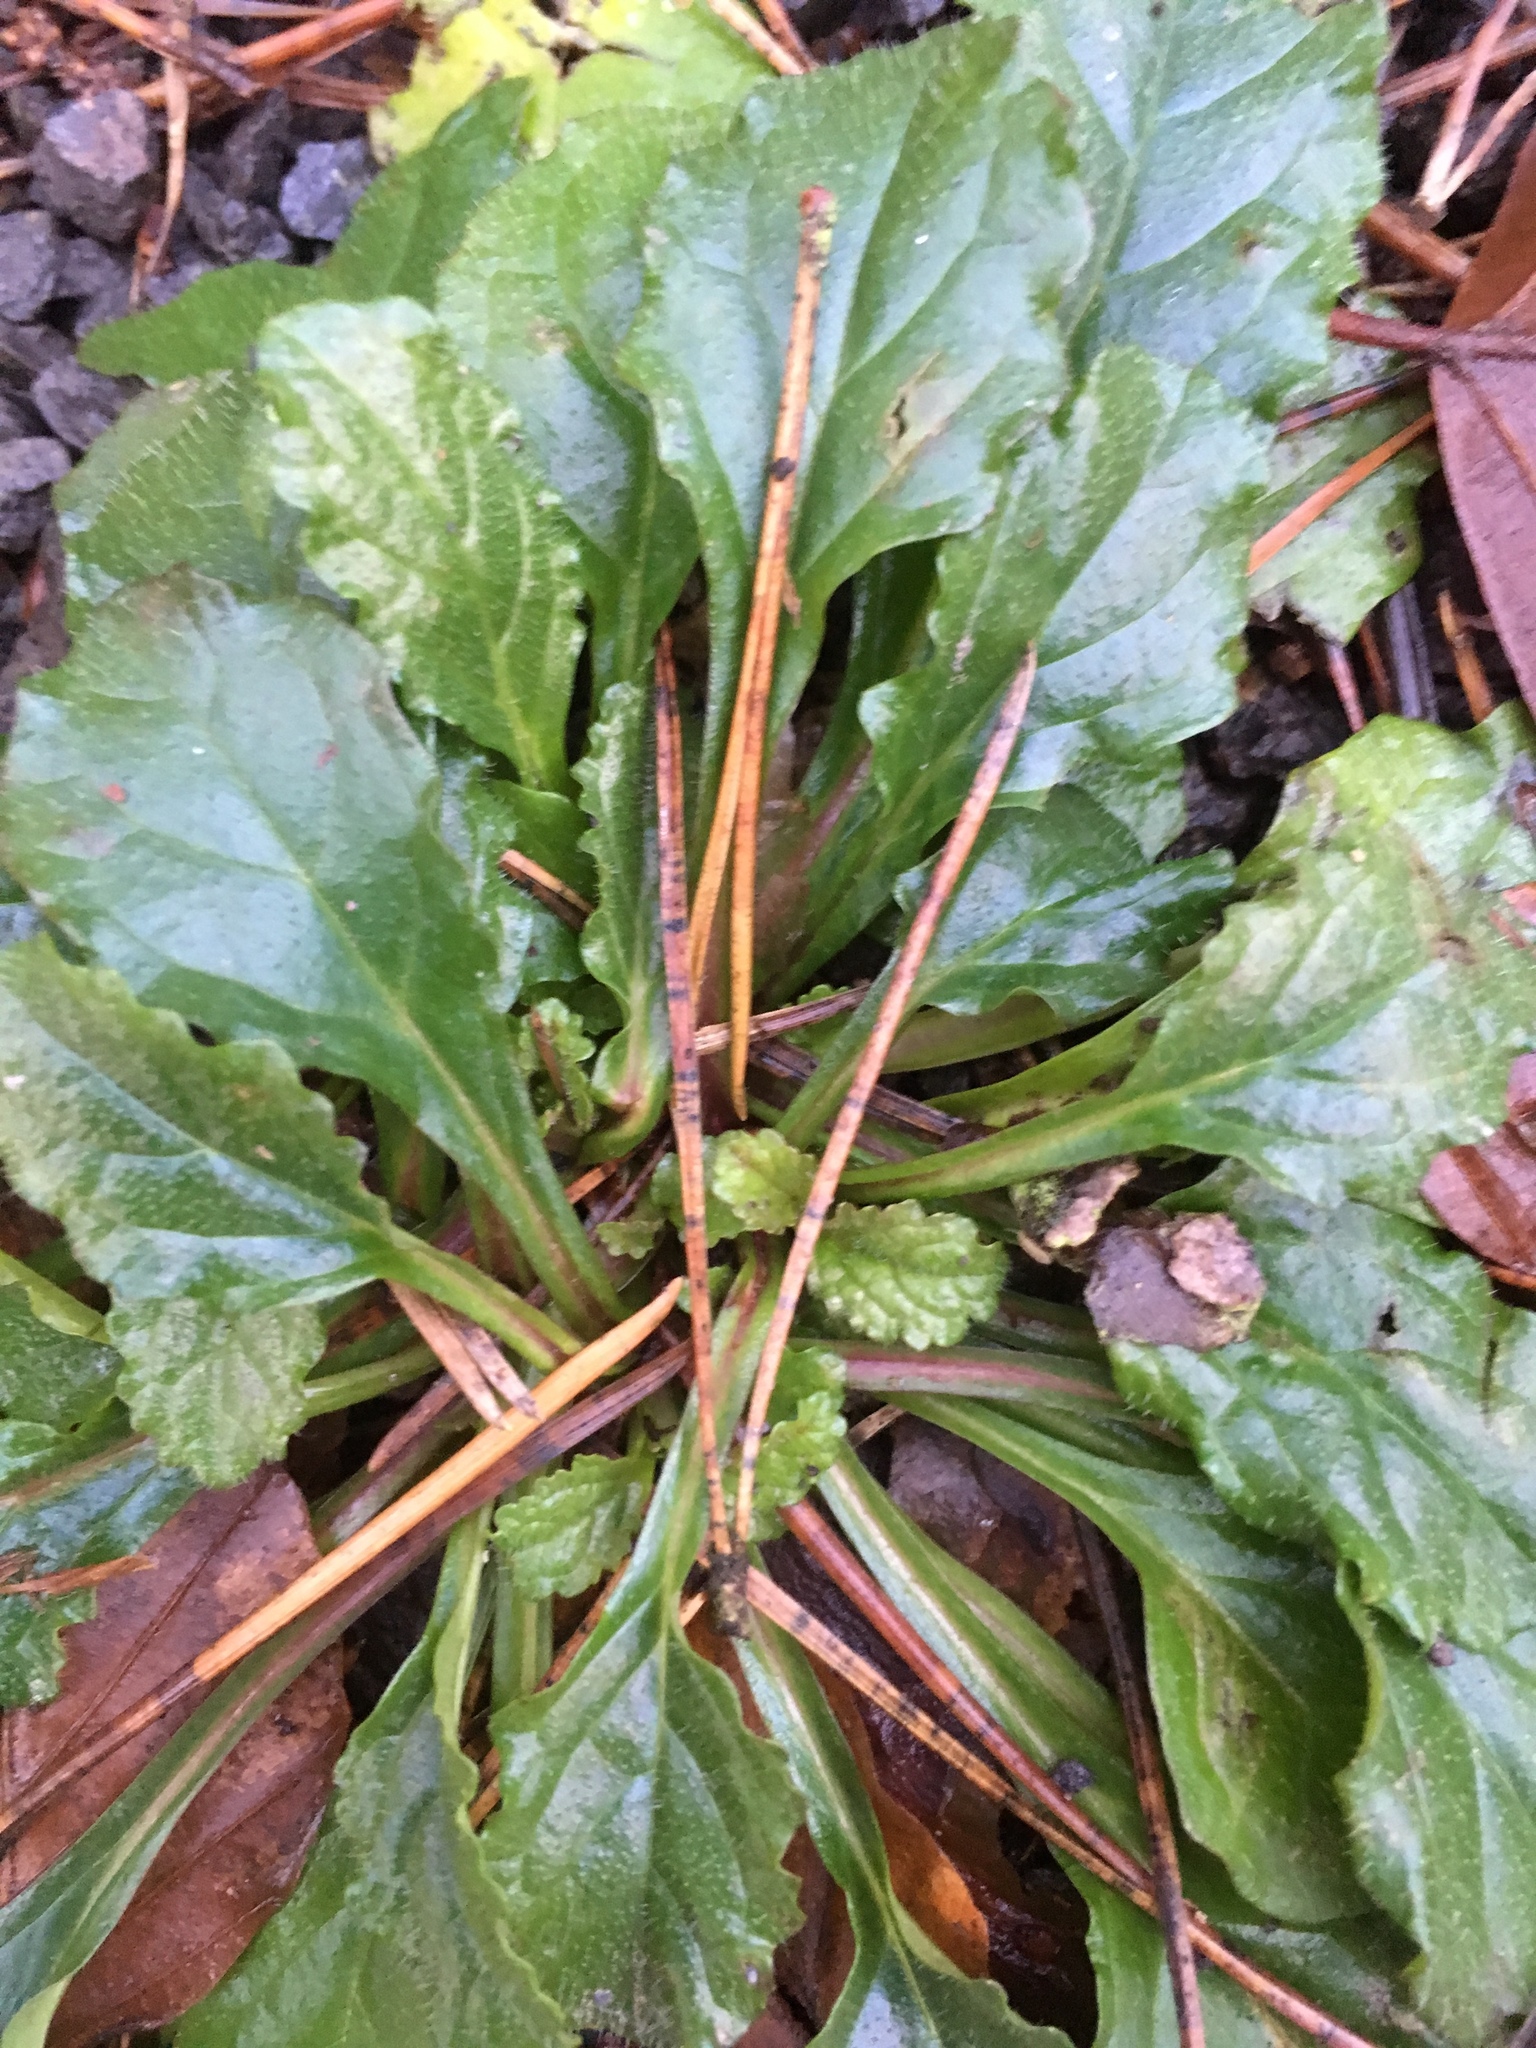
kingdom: Plantae
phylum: Tracheophyta
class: Magnoliopsida
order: Lamiales
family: Lamiaceae
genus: Ajuga
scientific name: Ajuga reptans
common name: Bugle
